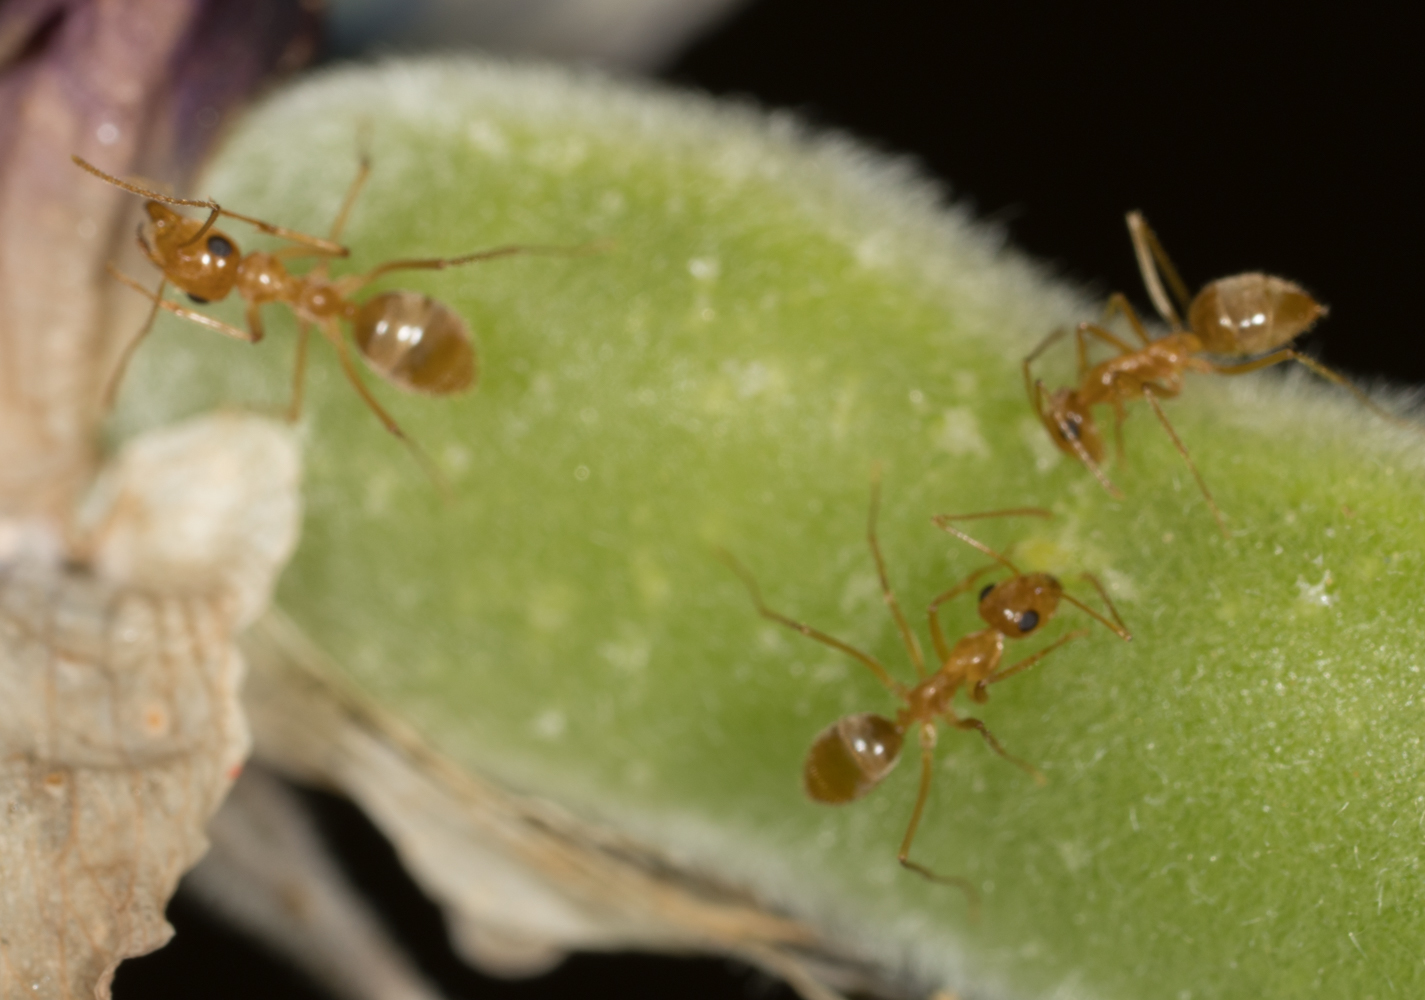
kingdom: Animalia
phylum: Arthropoda
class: Insecta
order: Hymenoptera
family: Formicidae
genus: Myrmecocystus
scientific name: Myrmecocystus testaceus
